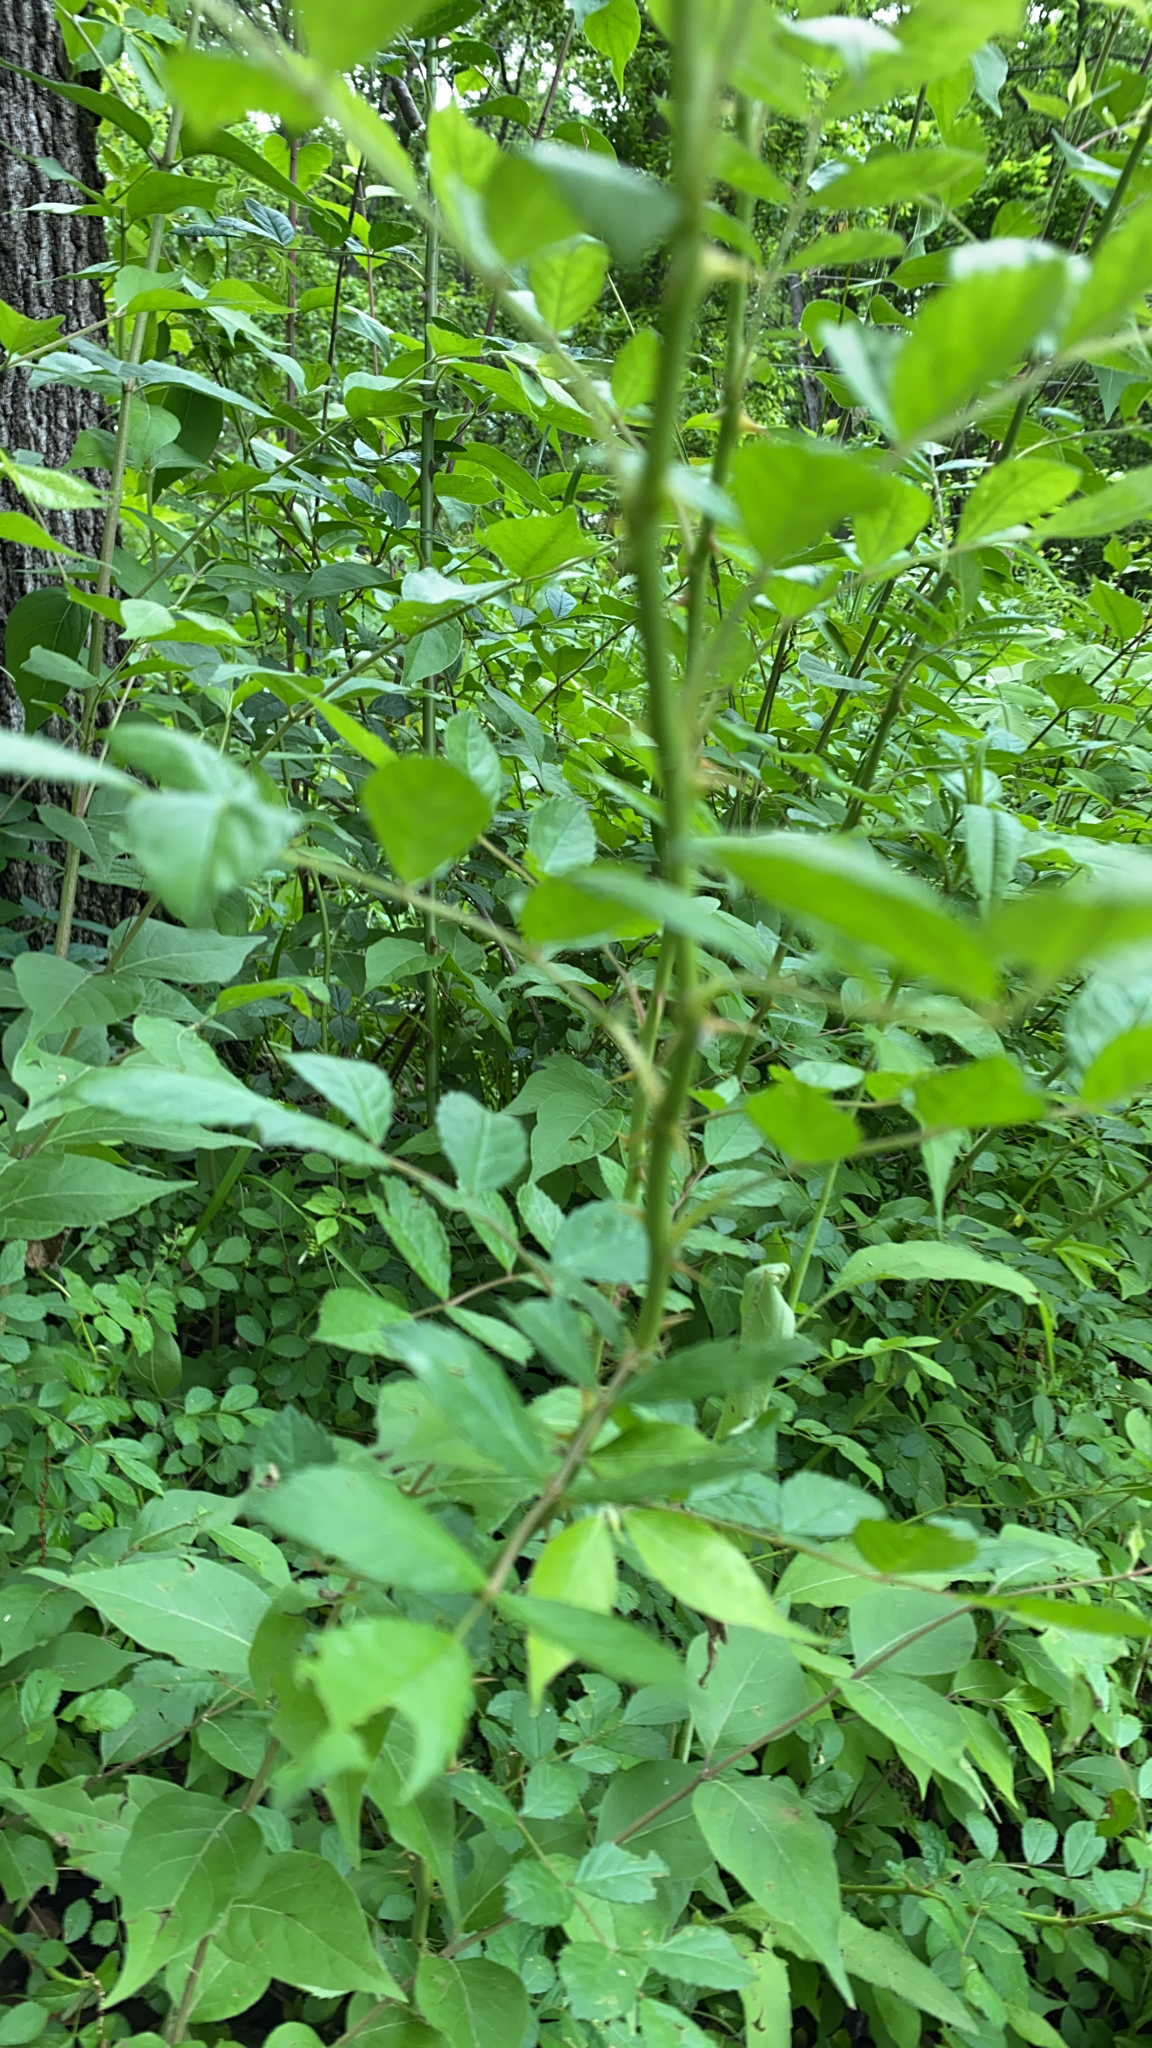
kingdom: Plantae
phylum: Tracheophyta
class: Magnoliopsida
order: Rosales
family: Rosaceae
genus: Rosa
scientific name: Rosa multiflora
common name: Multiflora rose
